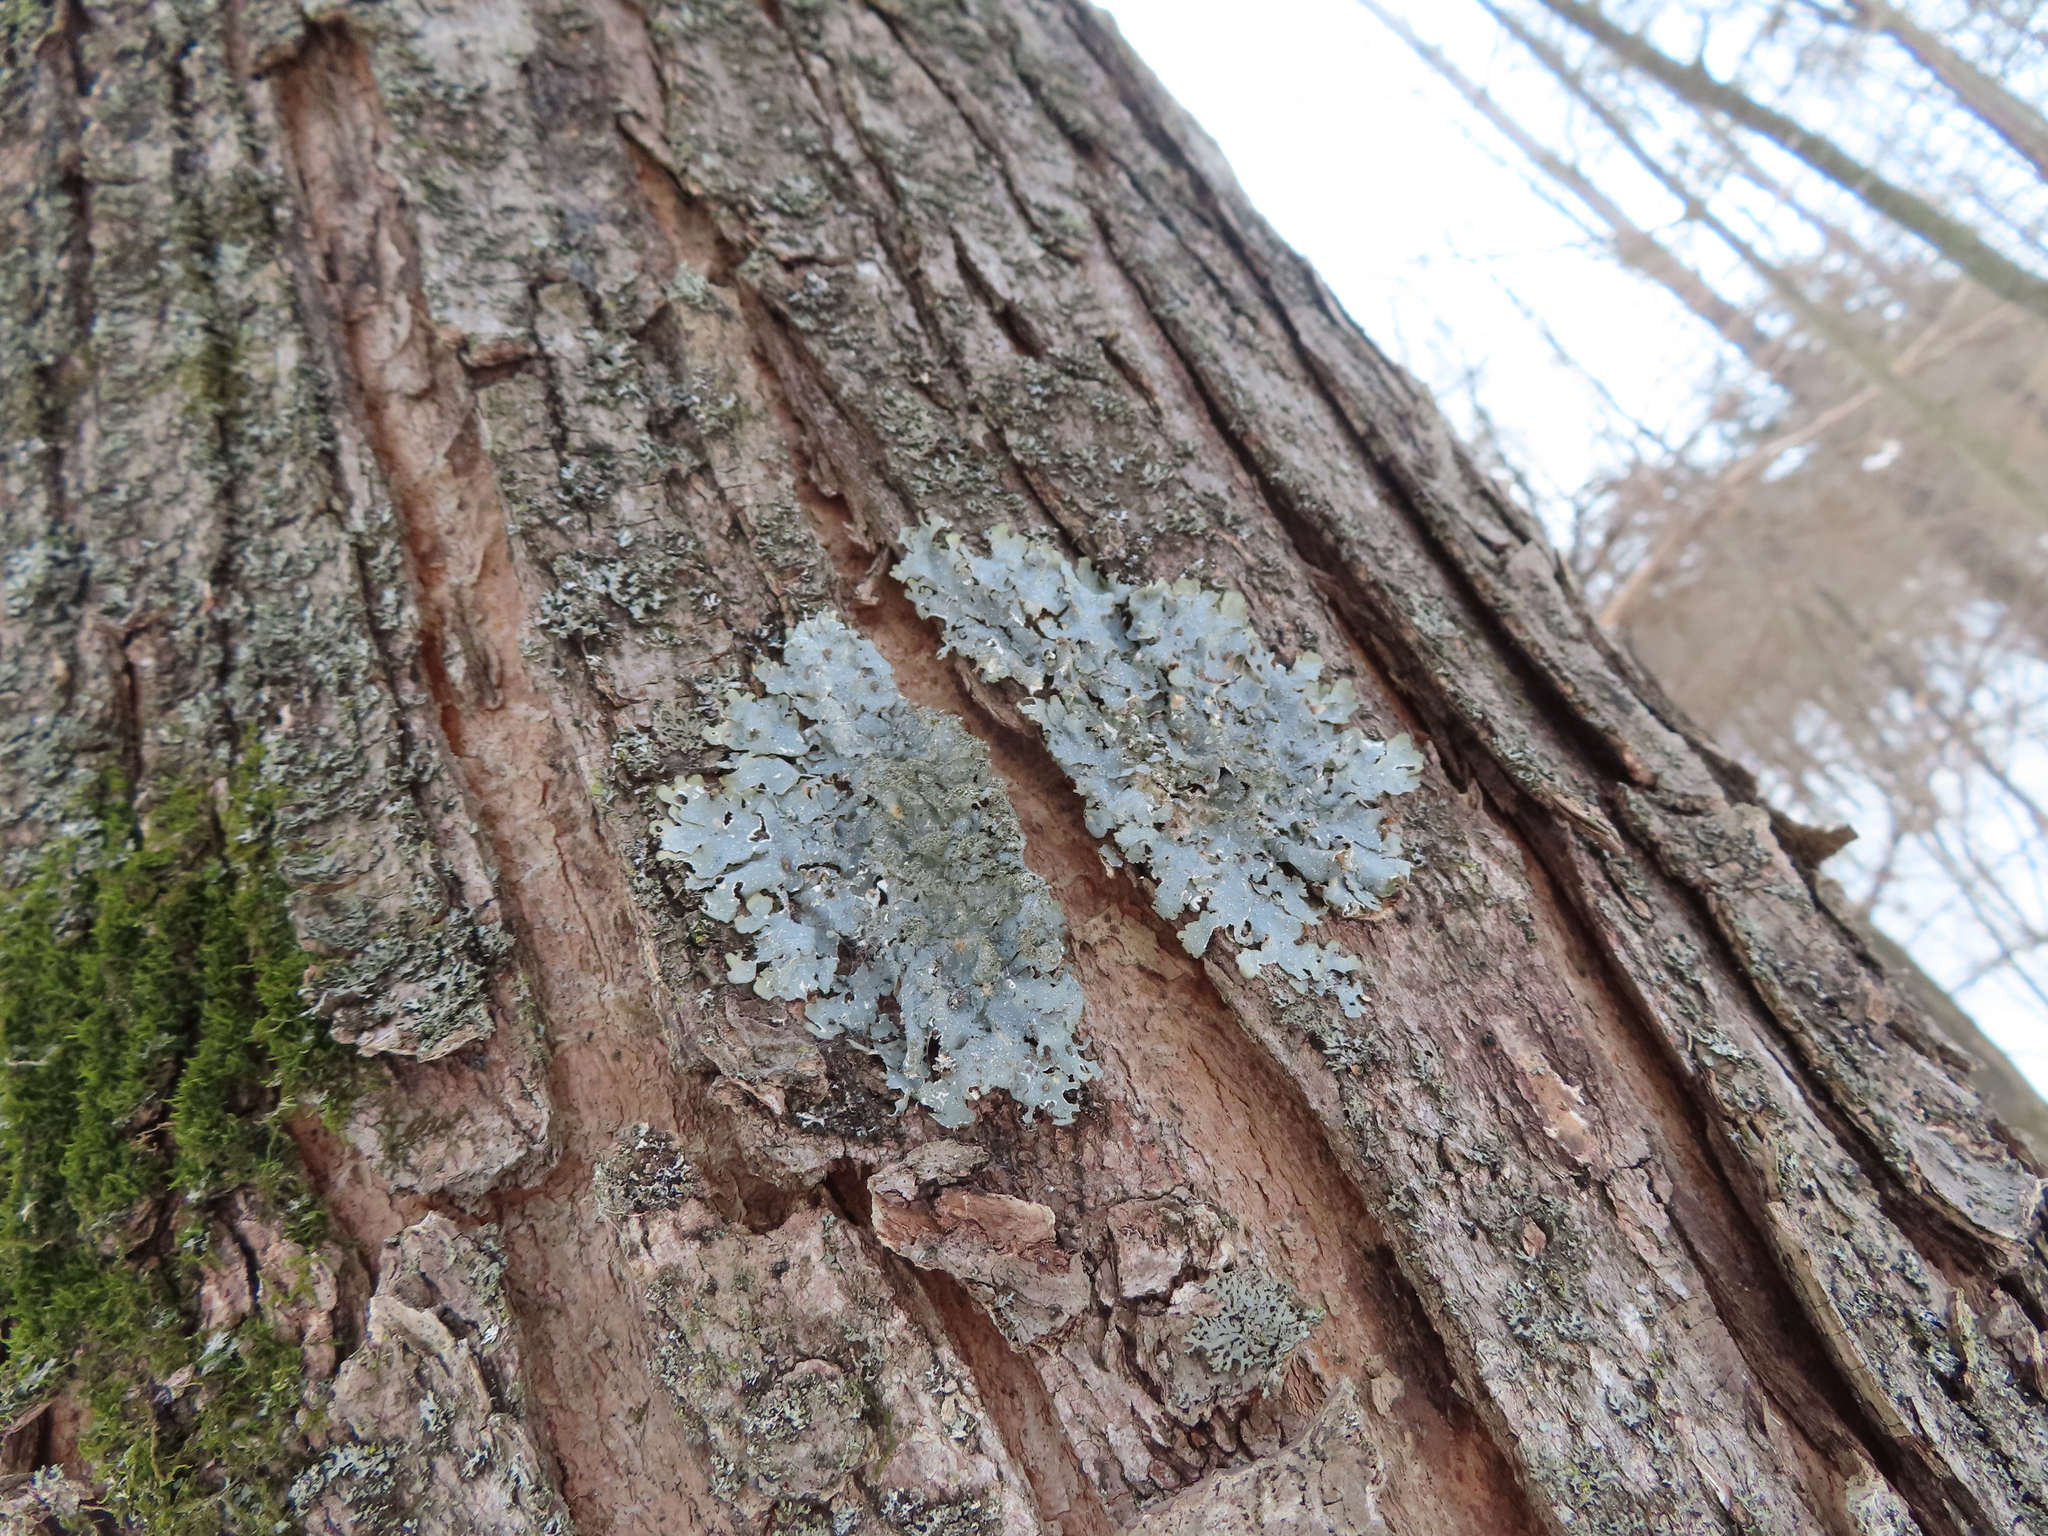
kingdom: Fungi
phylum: Ascomycota
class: Lecanoromycetes
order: Lecanorales
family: Parmeliaceae
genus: Punctelia
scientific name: Punctelia rudecta
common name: Rough speckled shield lichen
